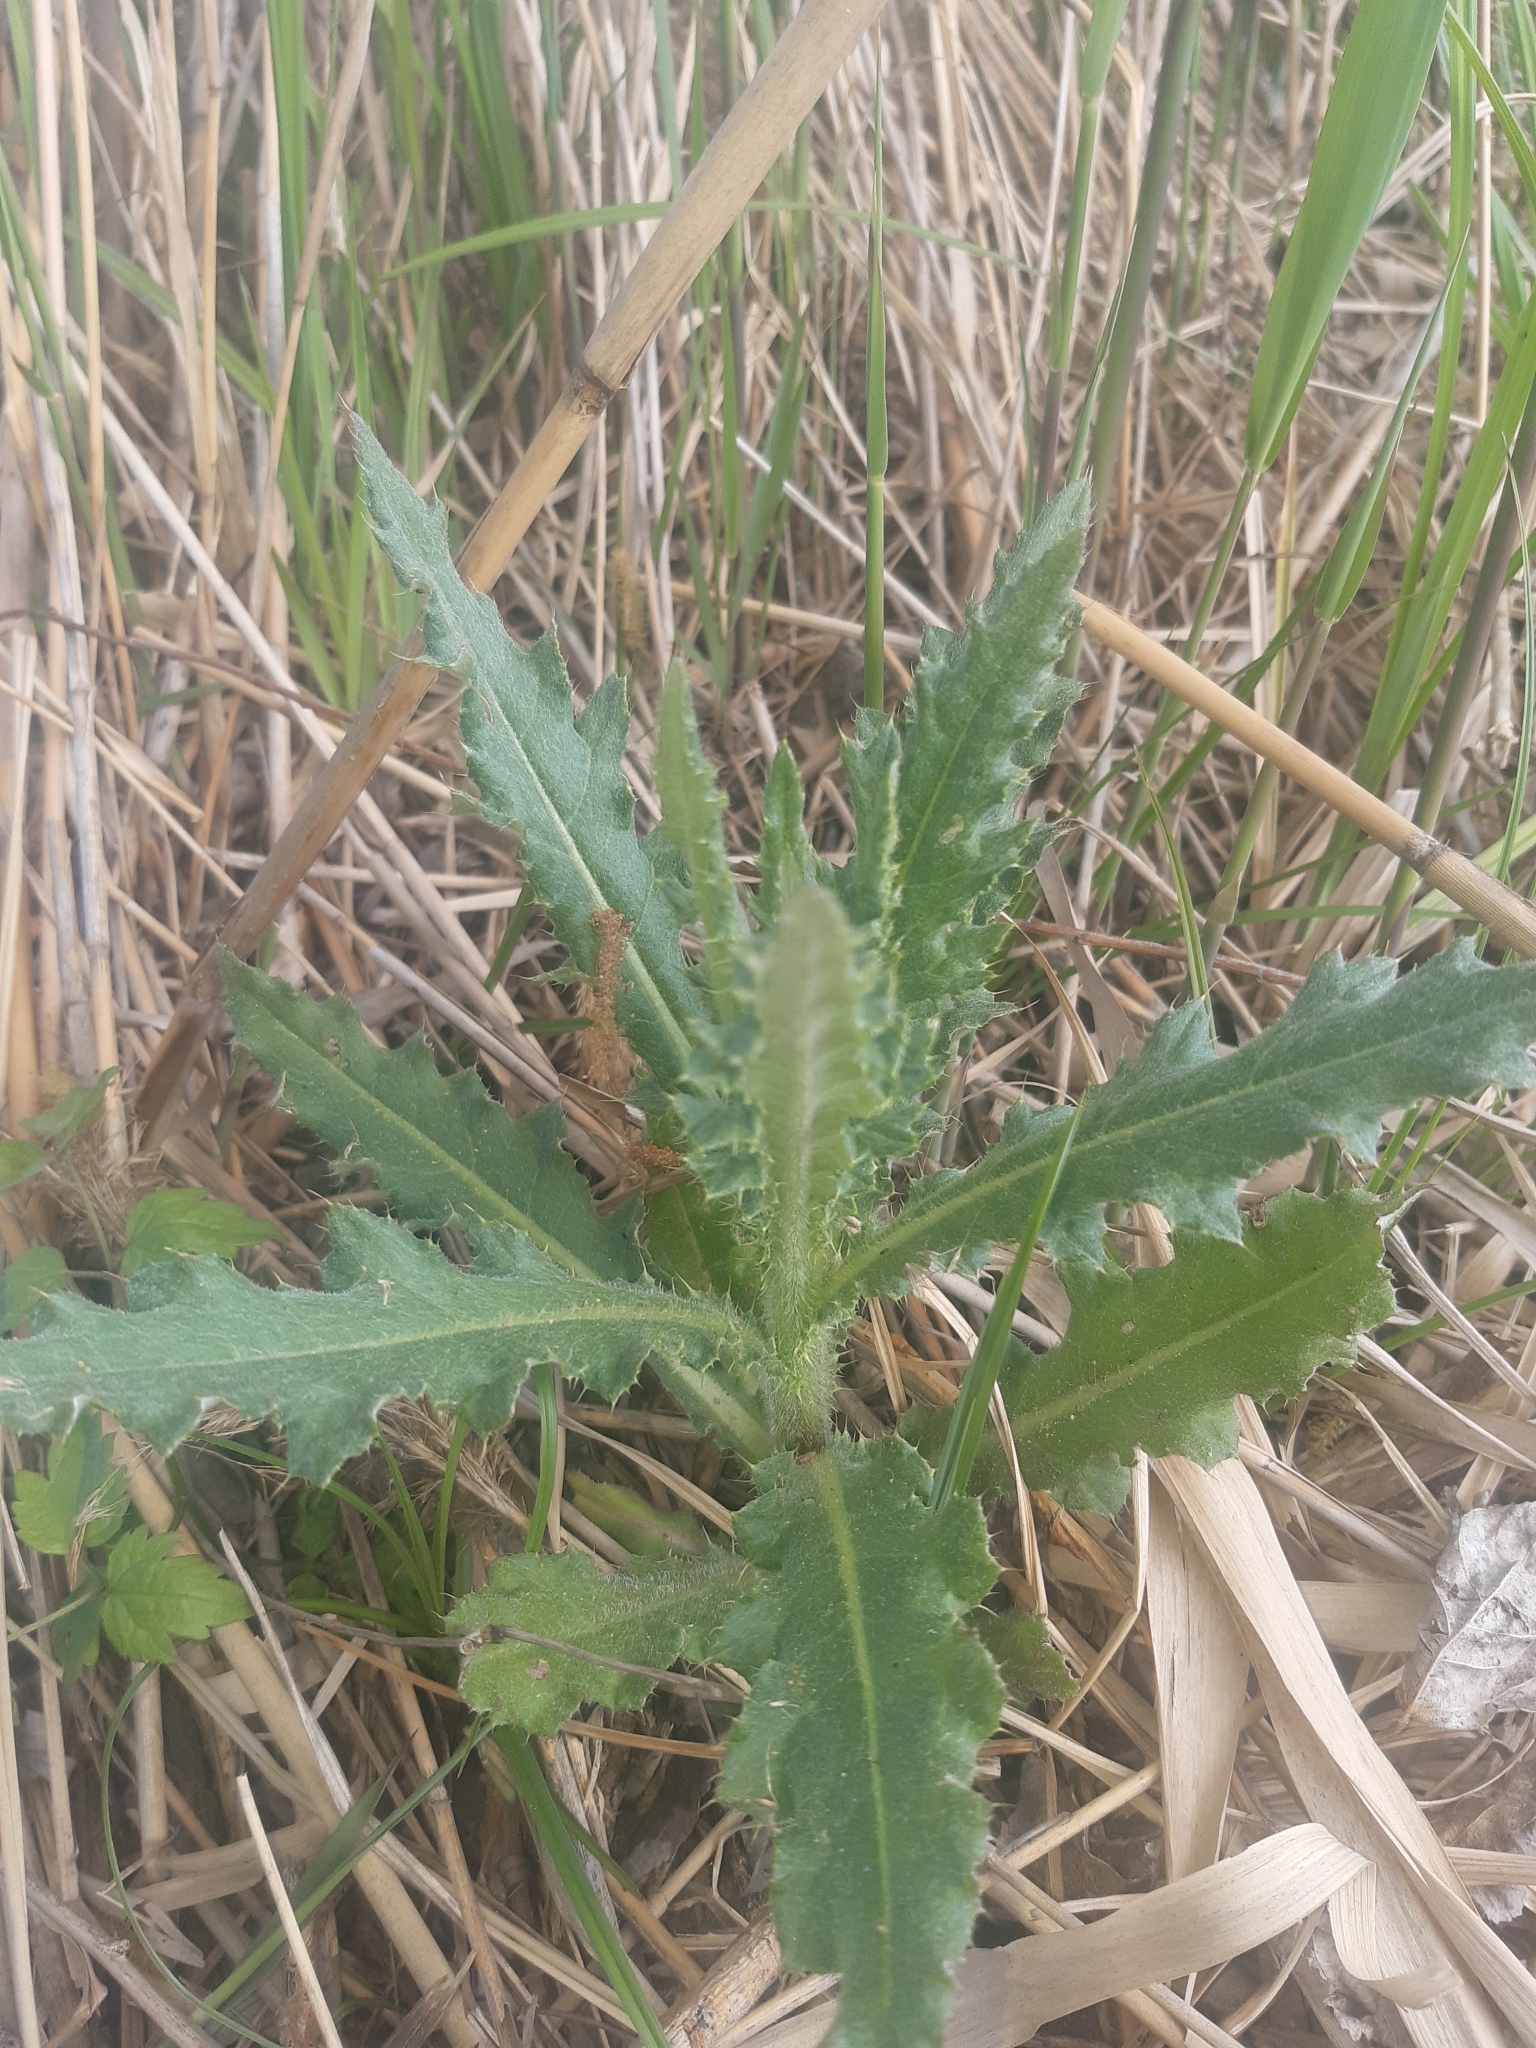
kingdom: Plantae
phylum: Tracheophyta
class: Magnoliopsida
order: Asterales
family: Asteraceae
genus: Cirsium
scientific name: Cirsium arvense
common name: Creeping thistle
